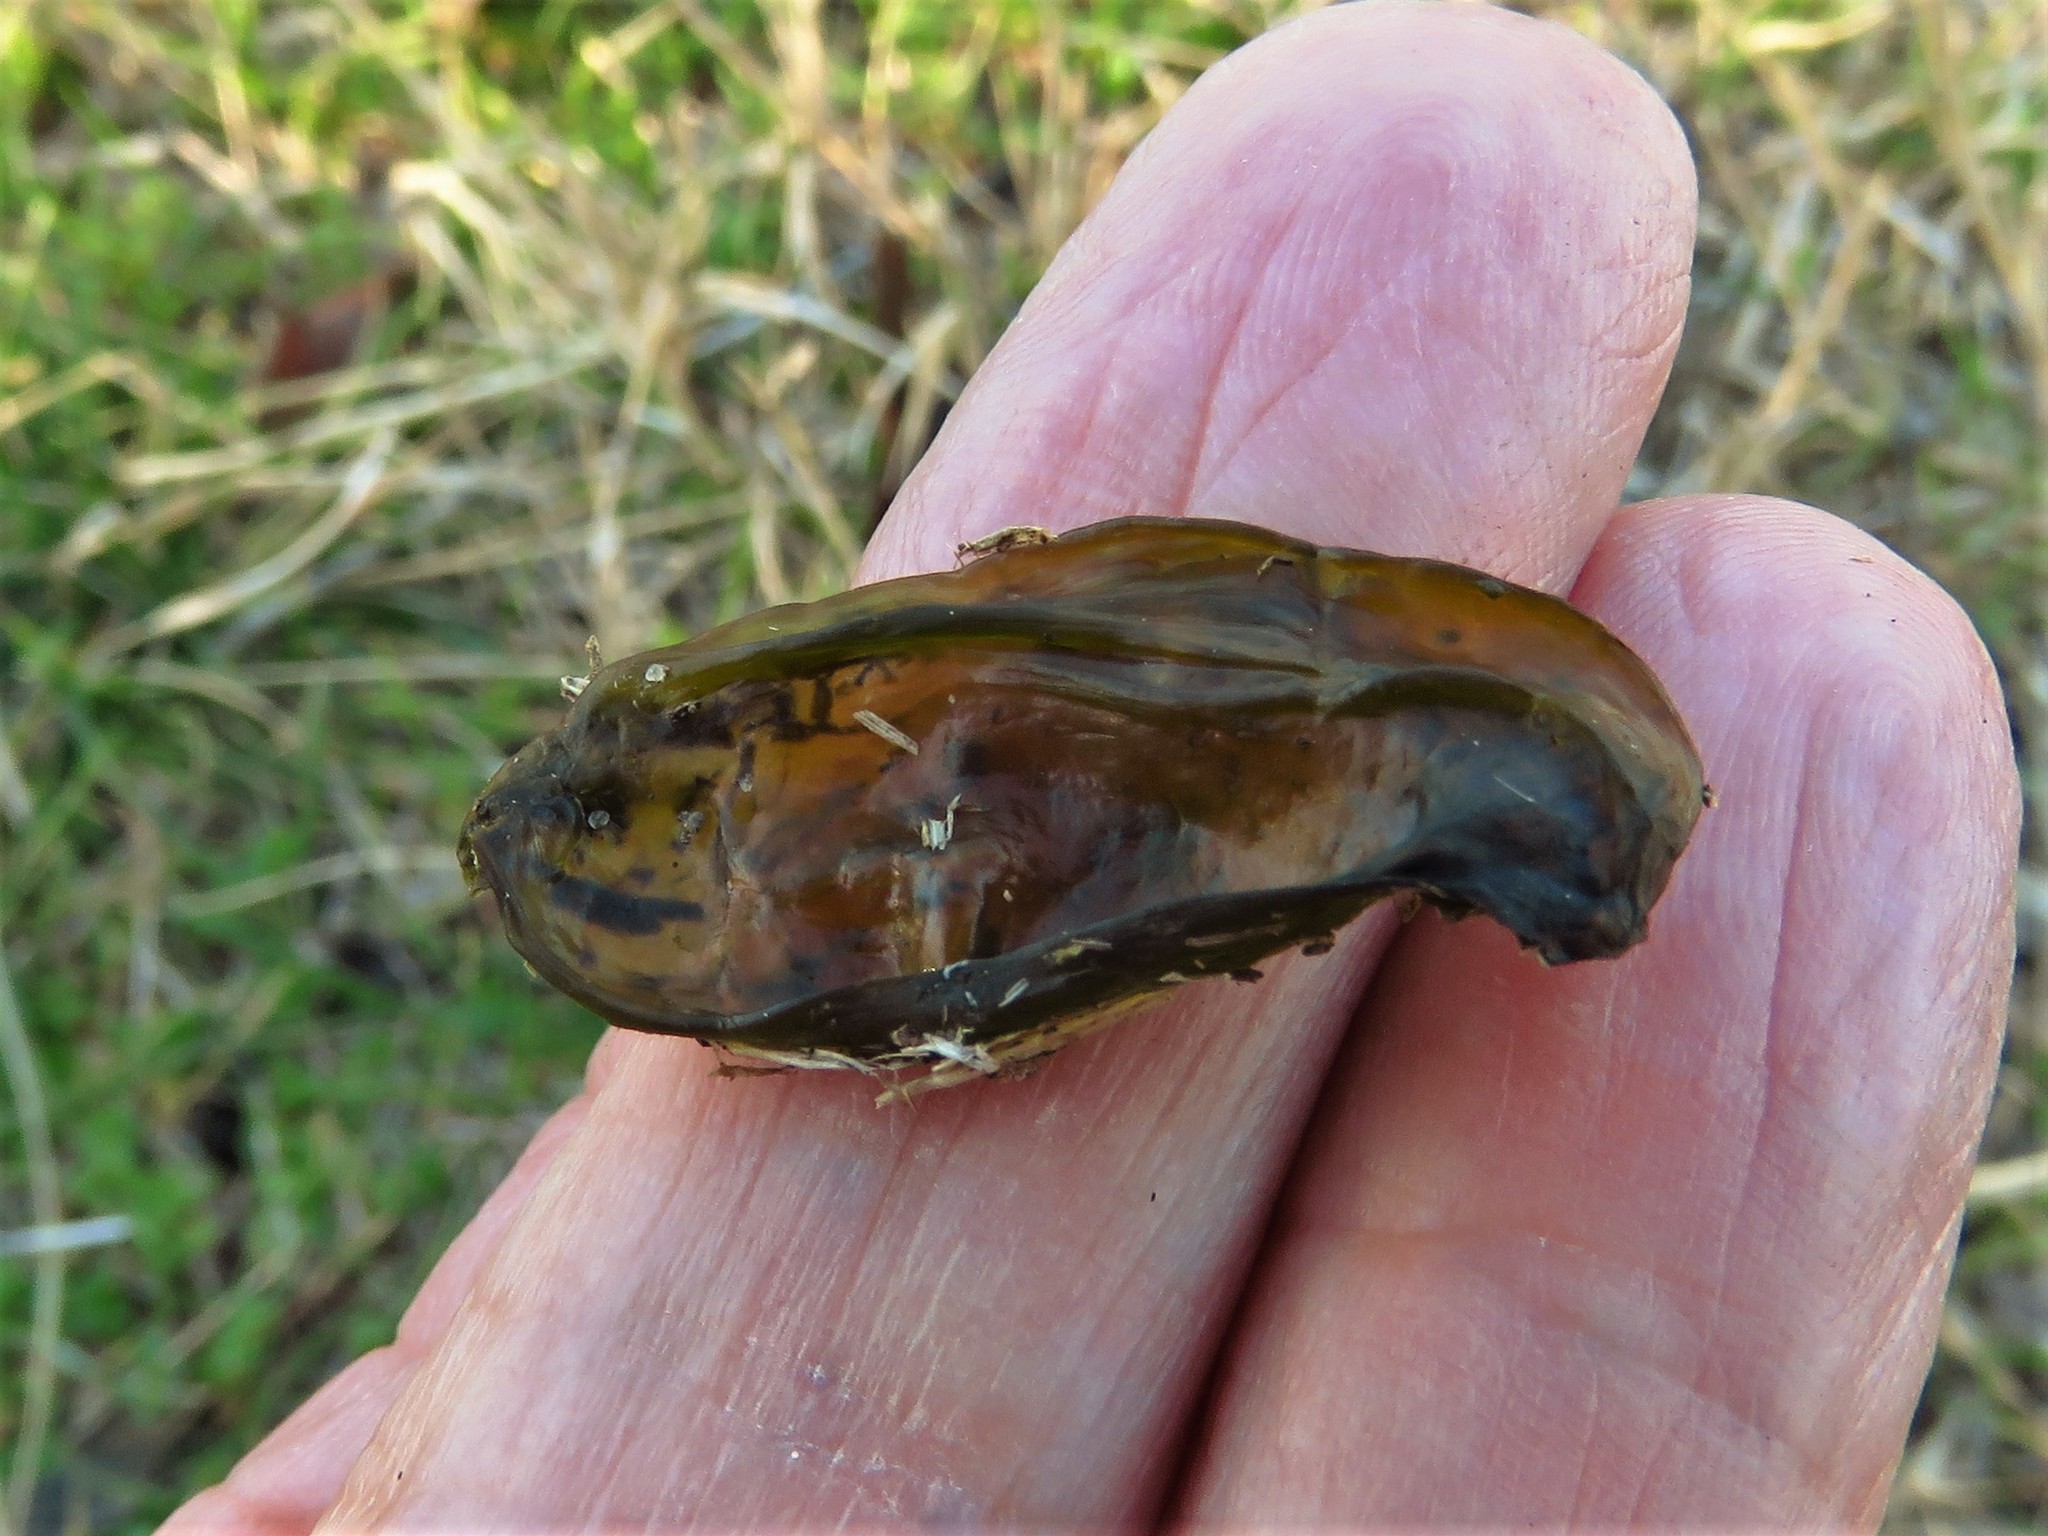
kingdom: Bacteria
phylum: Cyanobacteria
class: Cyanobacteriia
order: Cyanobacteriales
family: Nostocaceae
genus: Nostoc
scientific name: Nostoc commune
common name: Star jelly
